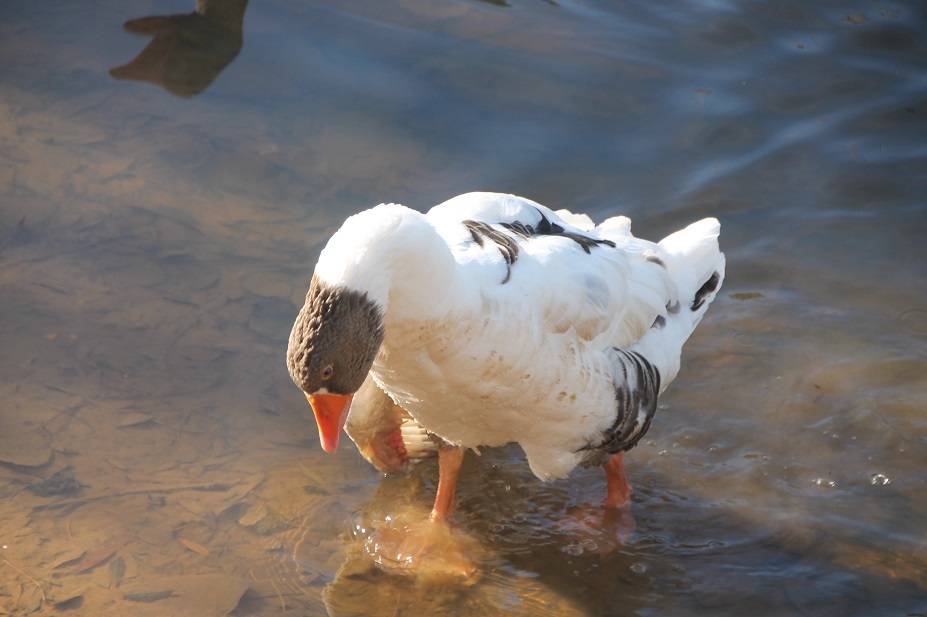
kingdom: Animalia
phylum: Chordata
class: Aves
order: Anseriformes
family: Anatidae
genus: Anser
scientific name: Anser anser
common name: Greylag goose
